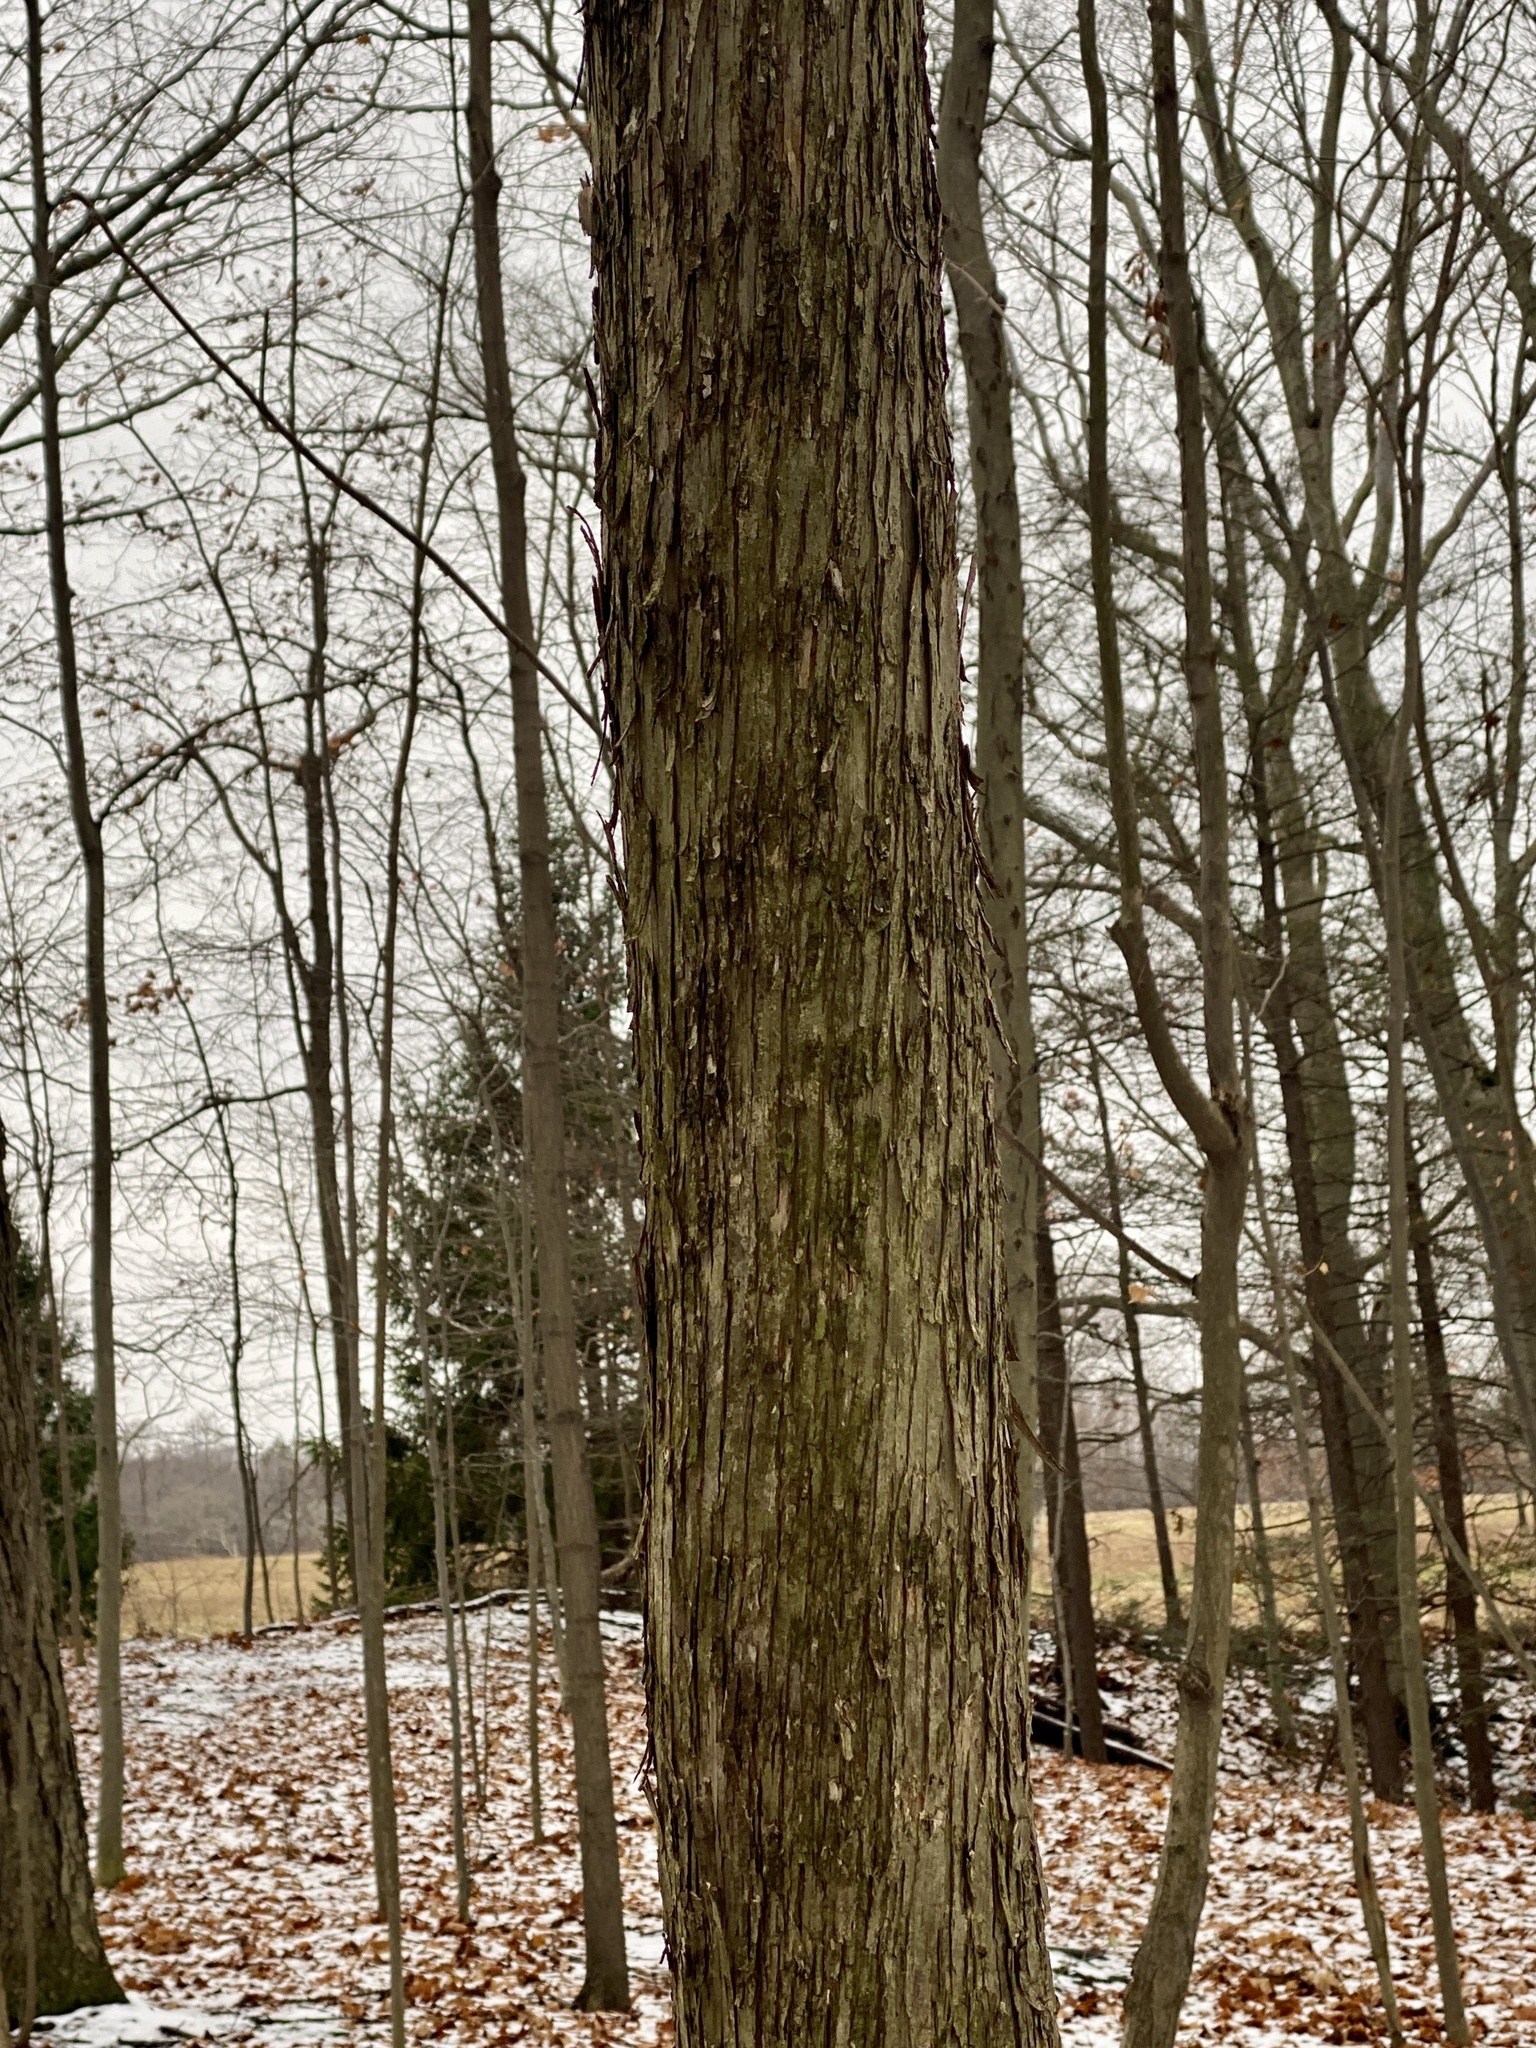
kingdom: Plantae
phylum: Tracheophyta
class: Magnoliopsida
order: Fagales
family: Betulaceae
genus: Ostrya
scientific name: Ostrya virginiana
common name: Ironwood
